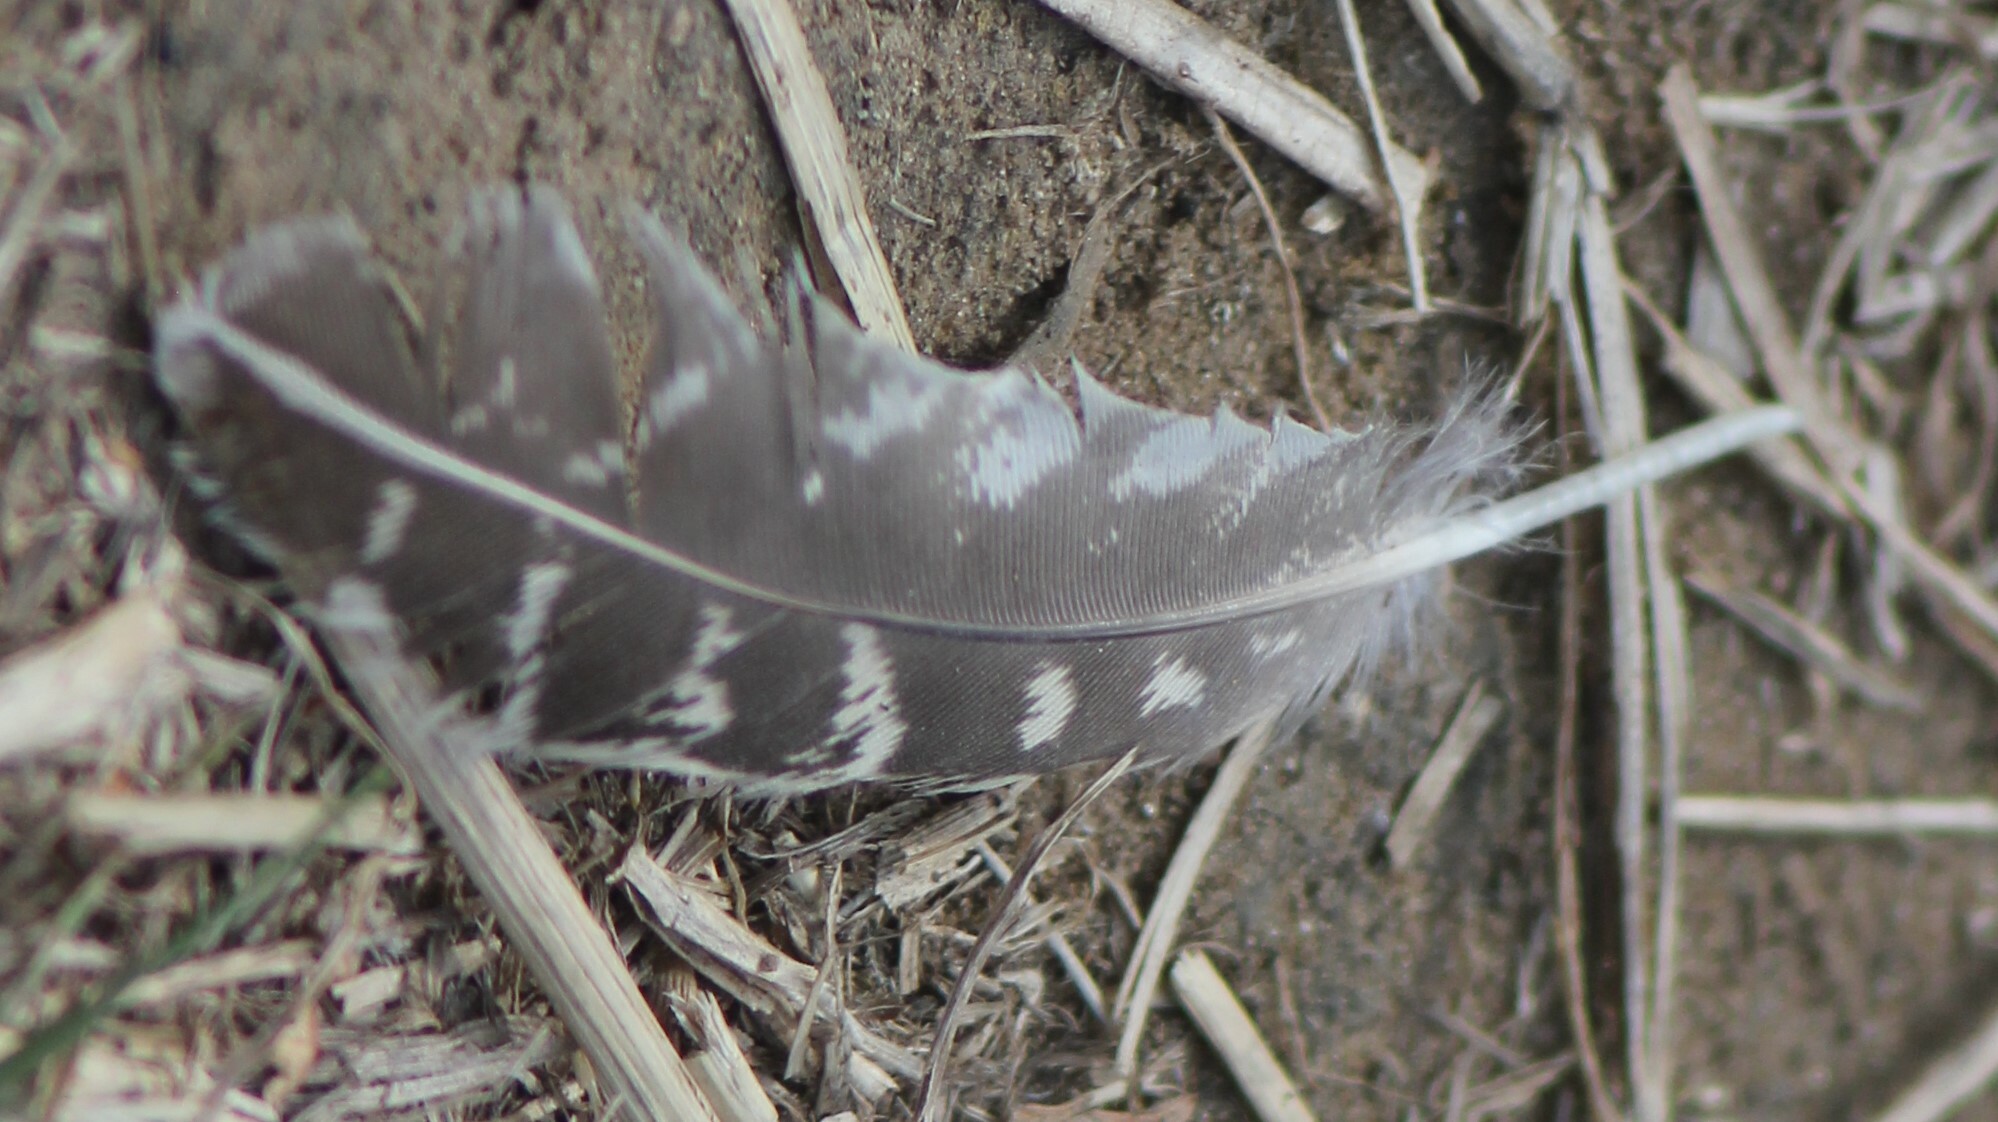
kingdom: Animalia
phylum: Chordata
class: Aves
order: Galliformes
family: Phasianidae
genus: Perdix
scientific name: Perdix perdix
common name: Grey partridge
